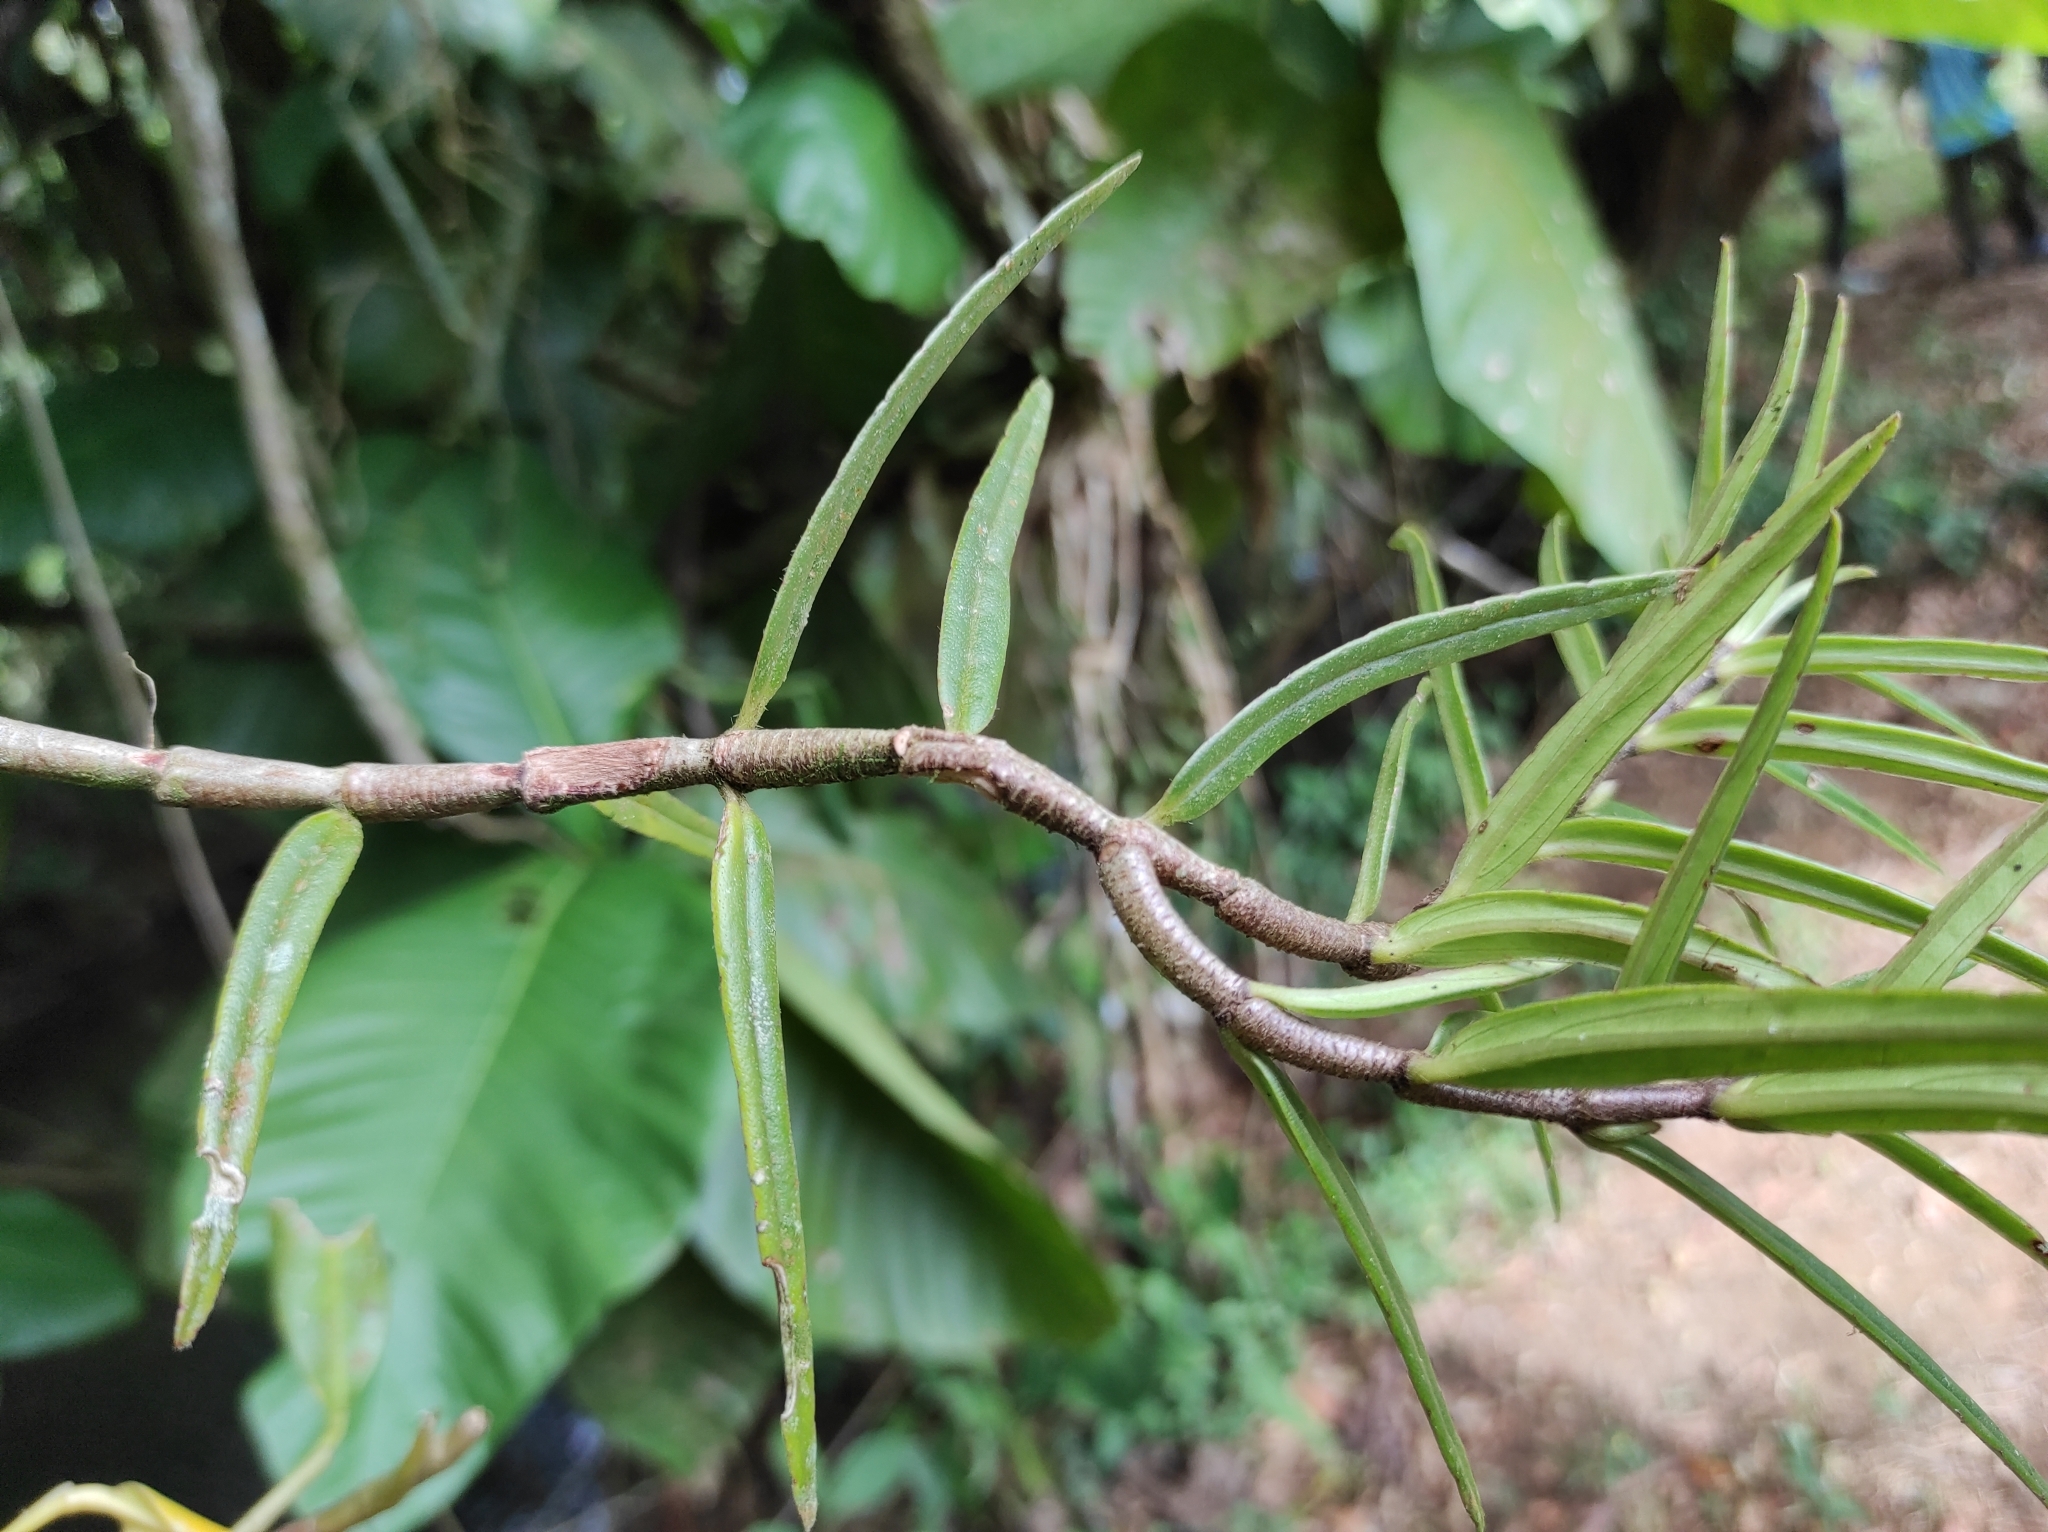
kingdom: Plantae
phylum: Tracheophyta
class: Magnoliopsida
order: Lamiales
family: Gesneriaceae
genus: Columnea
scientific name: Columnea linearis
